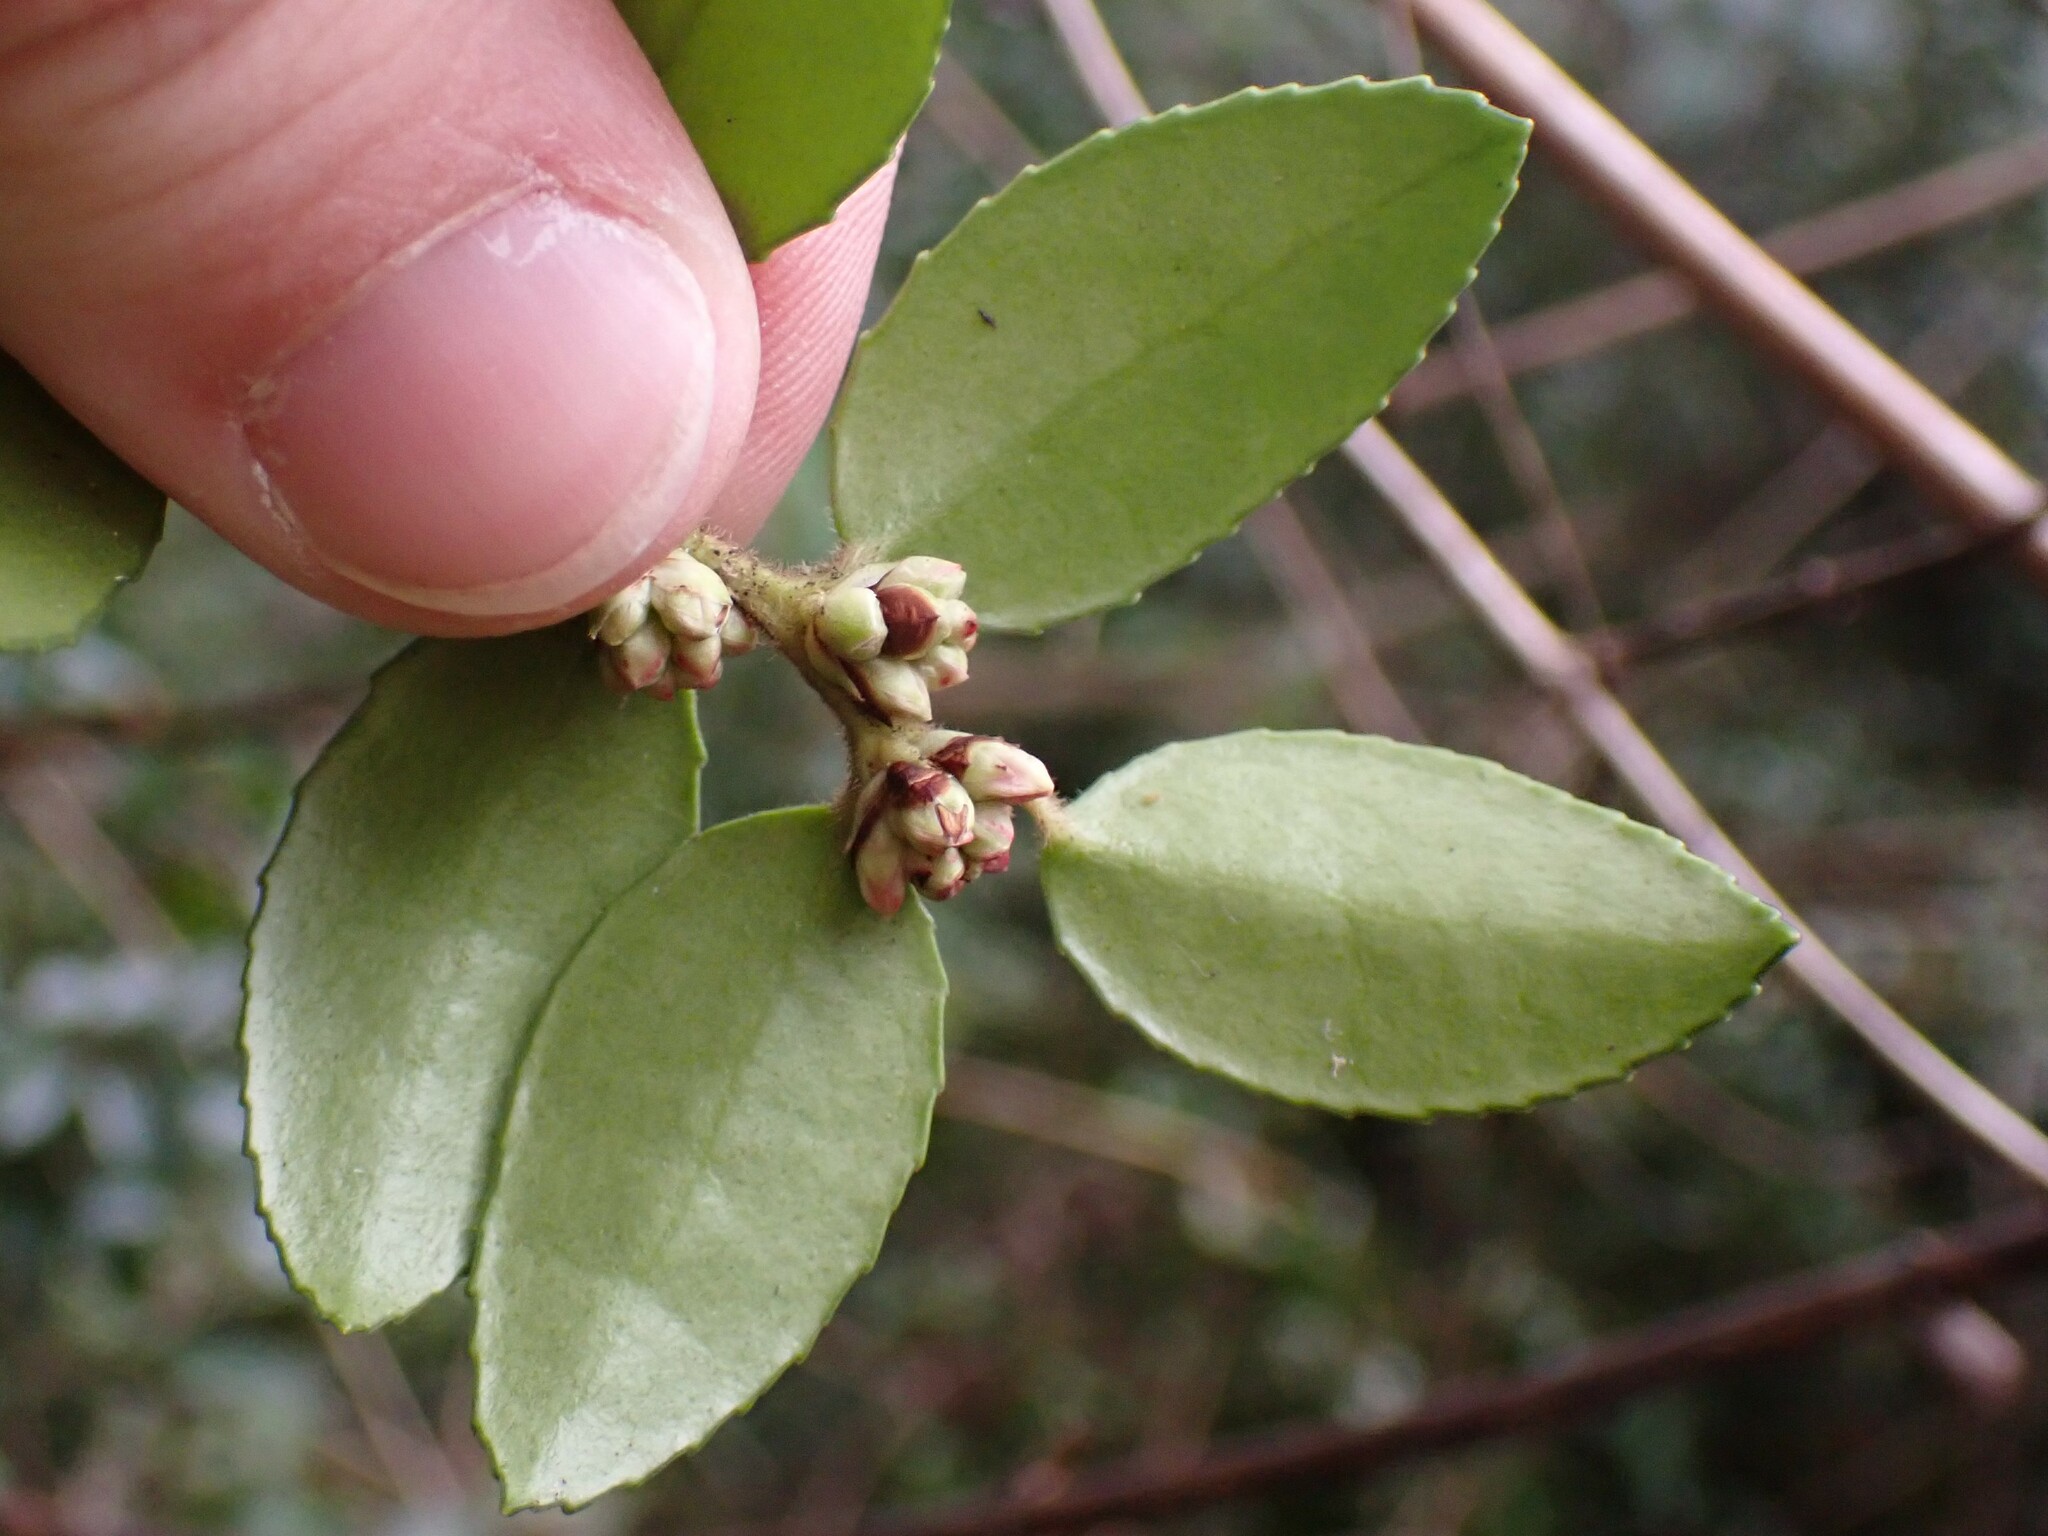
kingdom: Plantae
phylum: Tracheophyta
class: Magnoliopsida
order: Ericales
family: Ericaceae
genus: Vaccinium
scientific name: Vaccinium ovatum
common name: California-huckleberry
